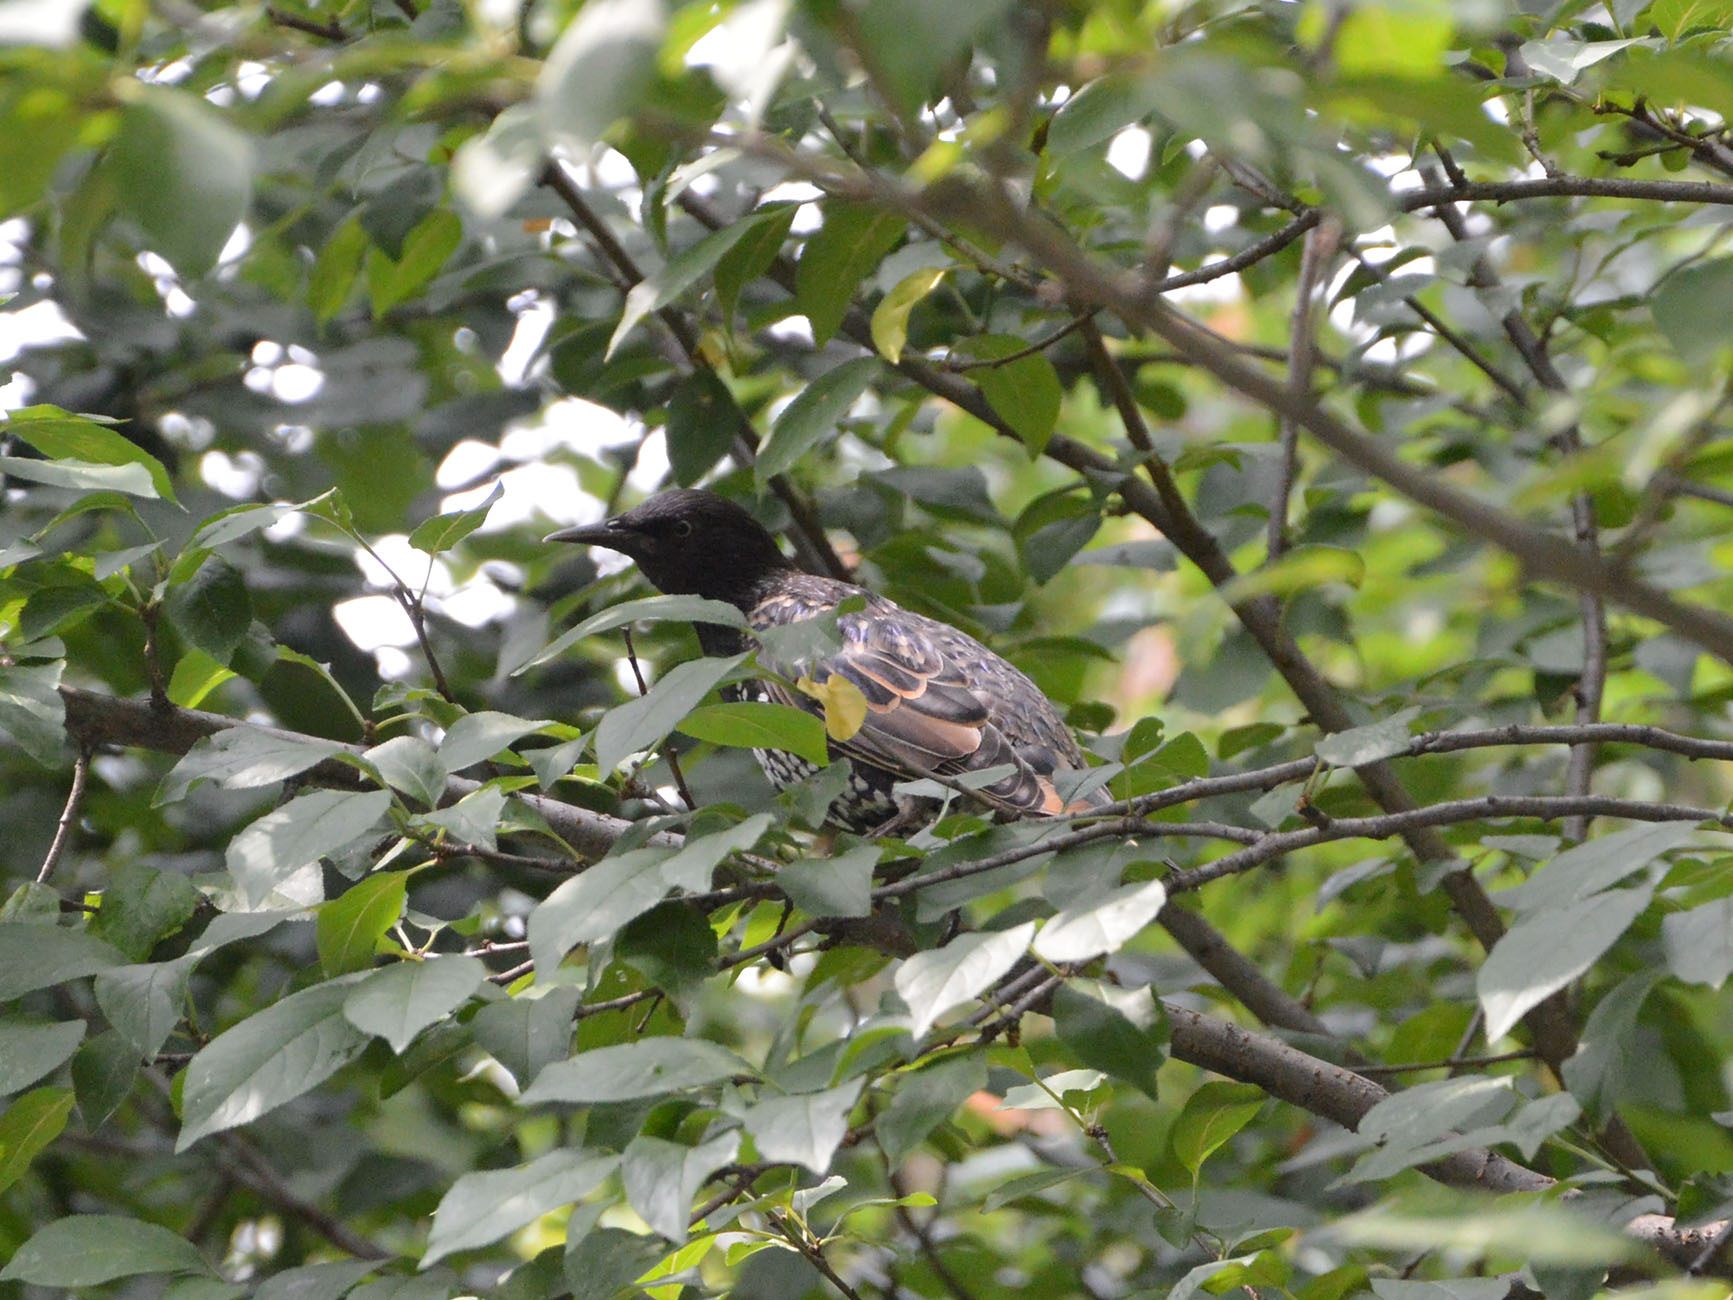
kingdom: Animalia
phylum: Chordata
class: Aves
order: Passeriformes
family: Sturnidae
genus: Sturnus
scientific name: Sturnus vulgaris
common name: Common starling
